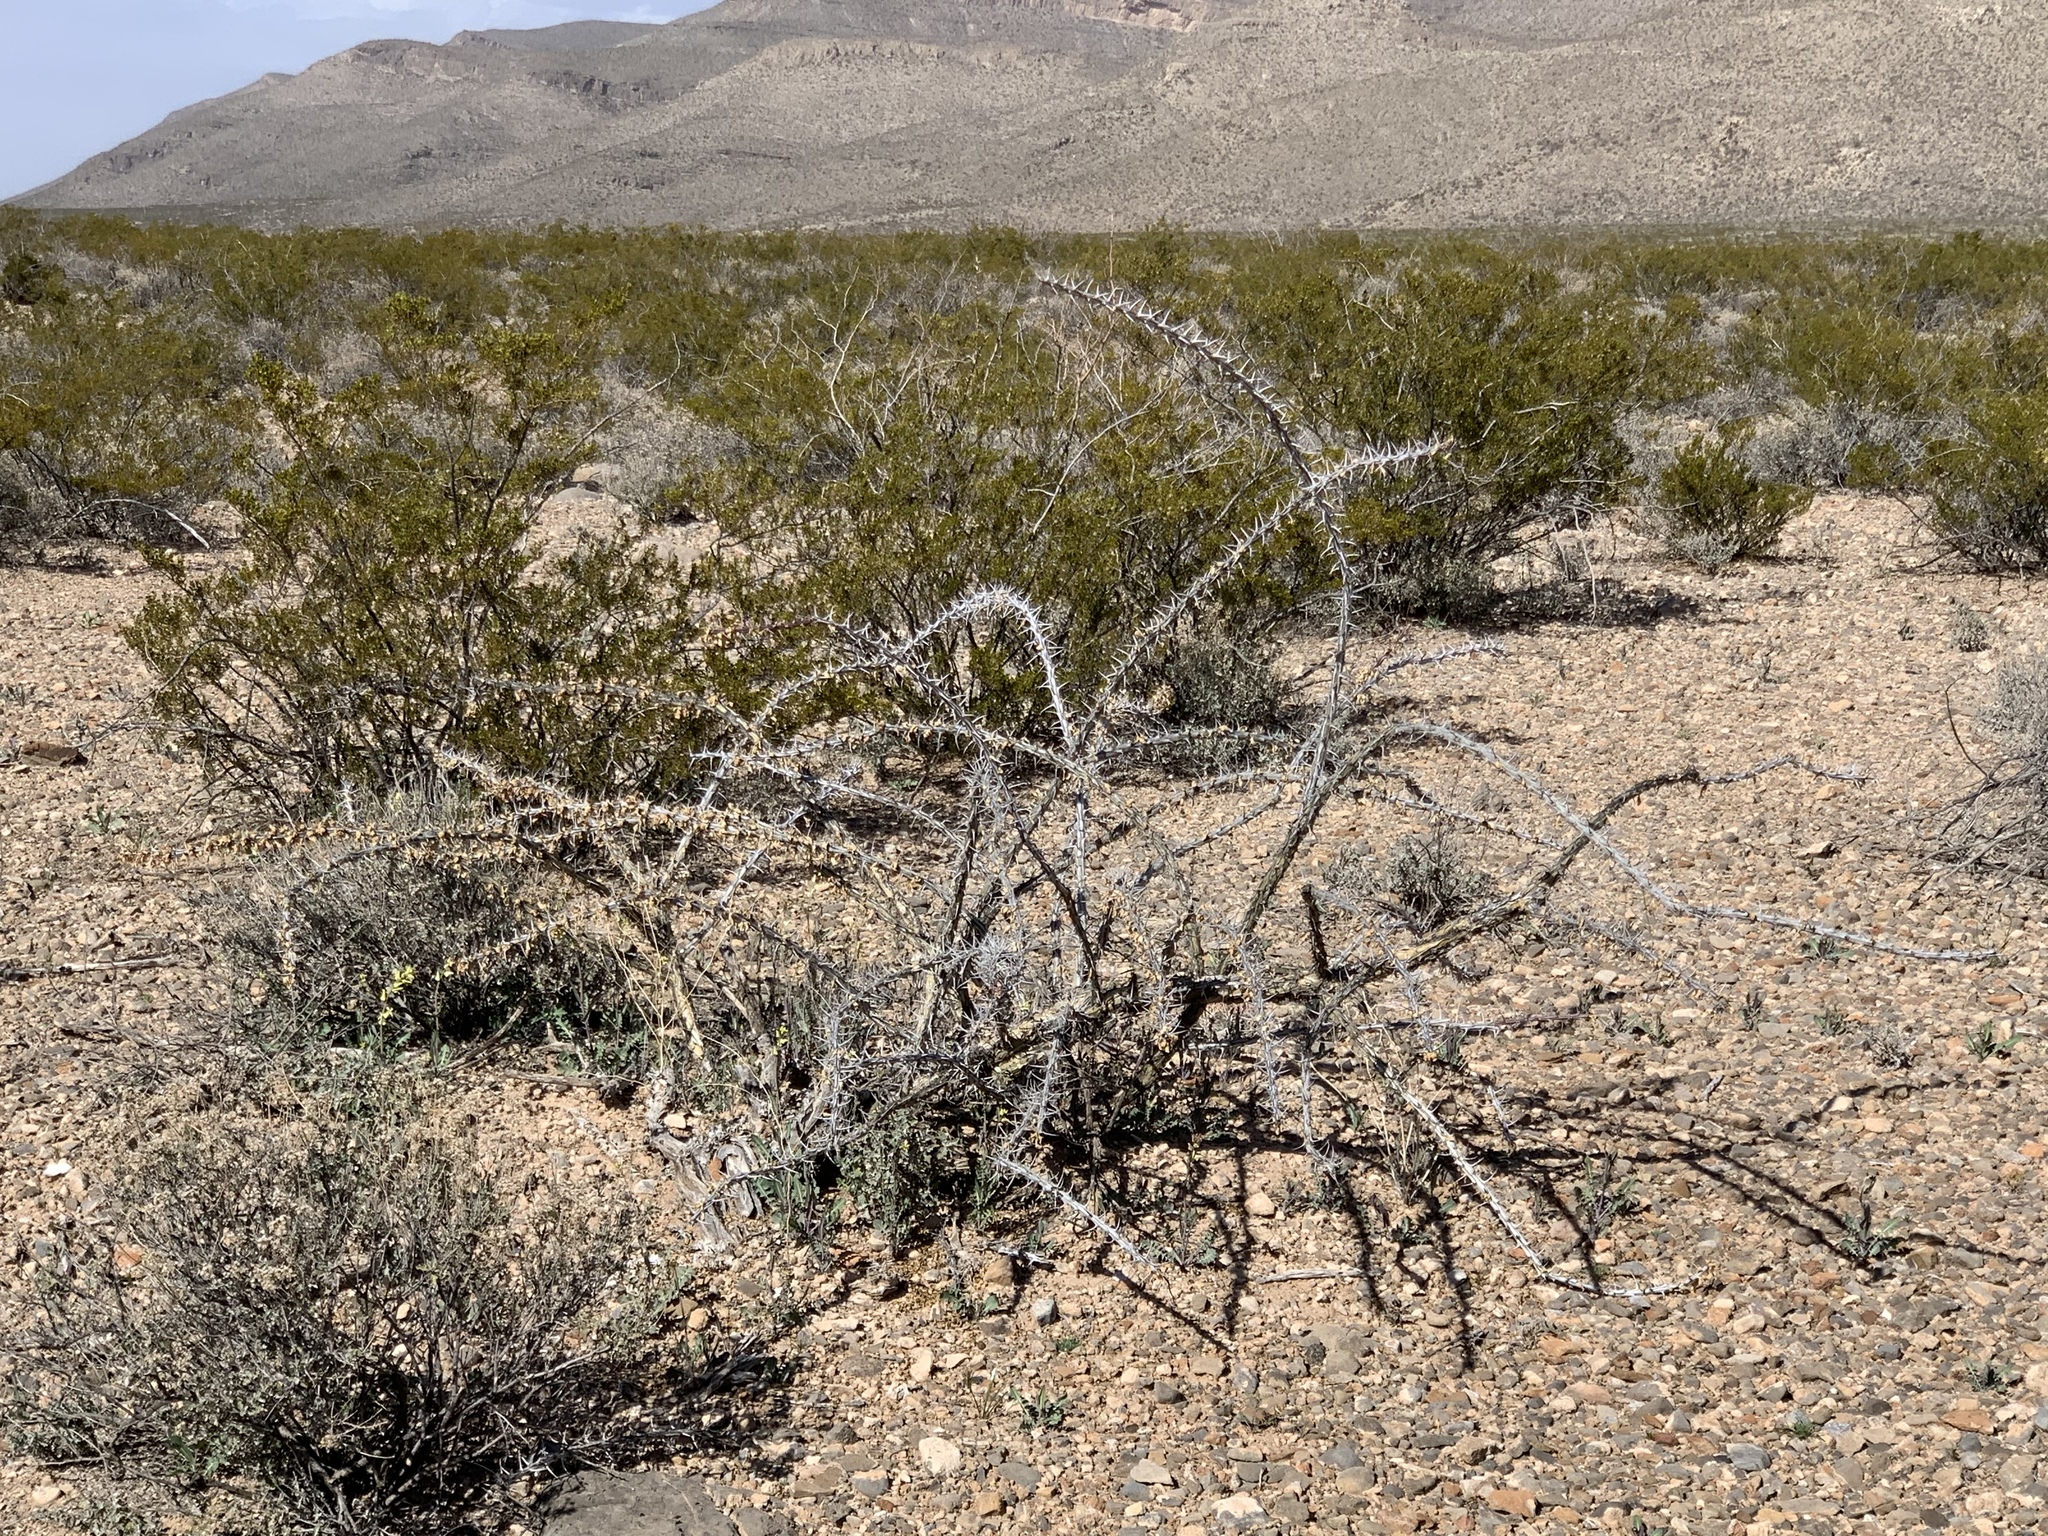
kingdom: Plantae
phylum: Tracheophyta
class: Magnoliopsida
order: Ericales
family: Fouquieriaceae
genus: Fouquieria
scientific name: Fouquieria splendens
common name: Vine-cactus
